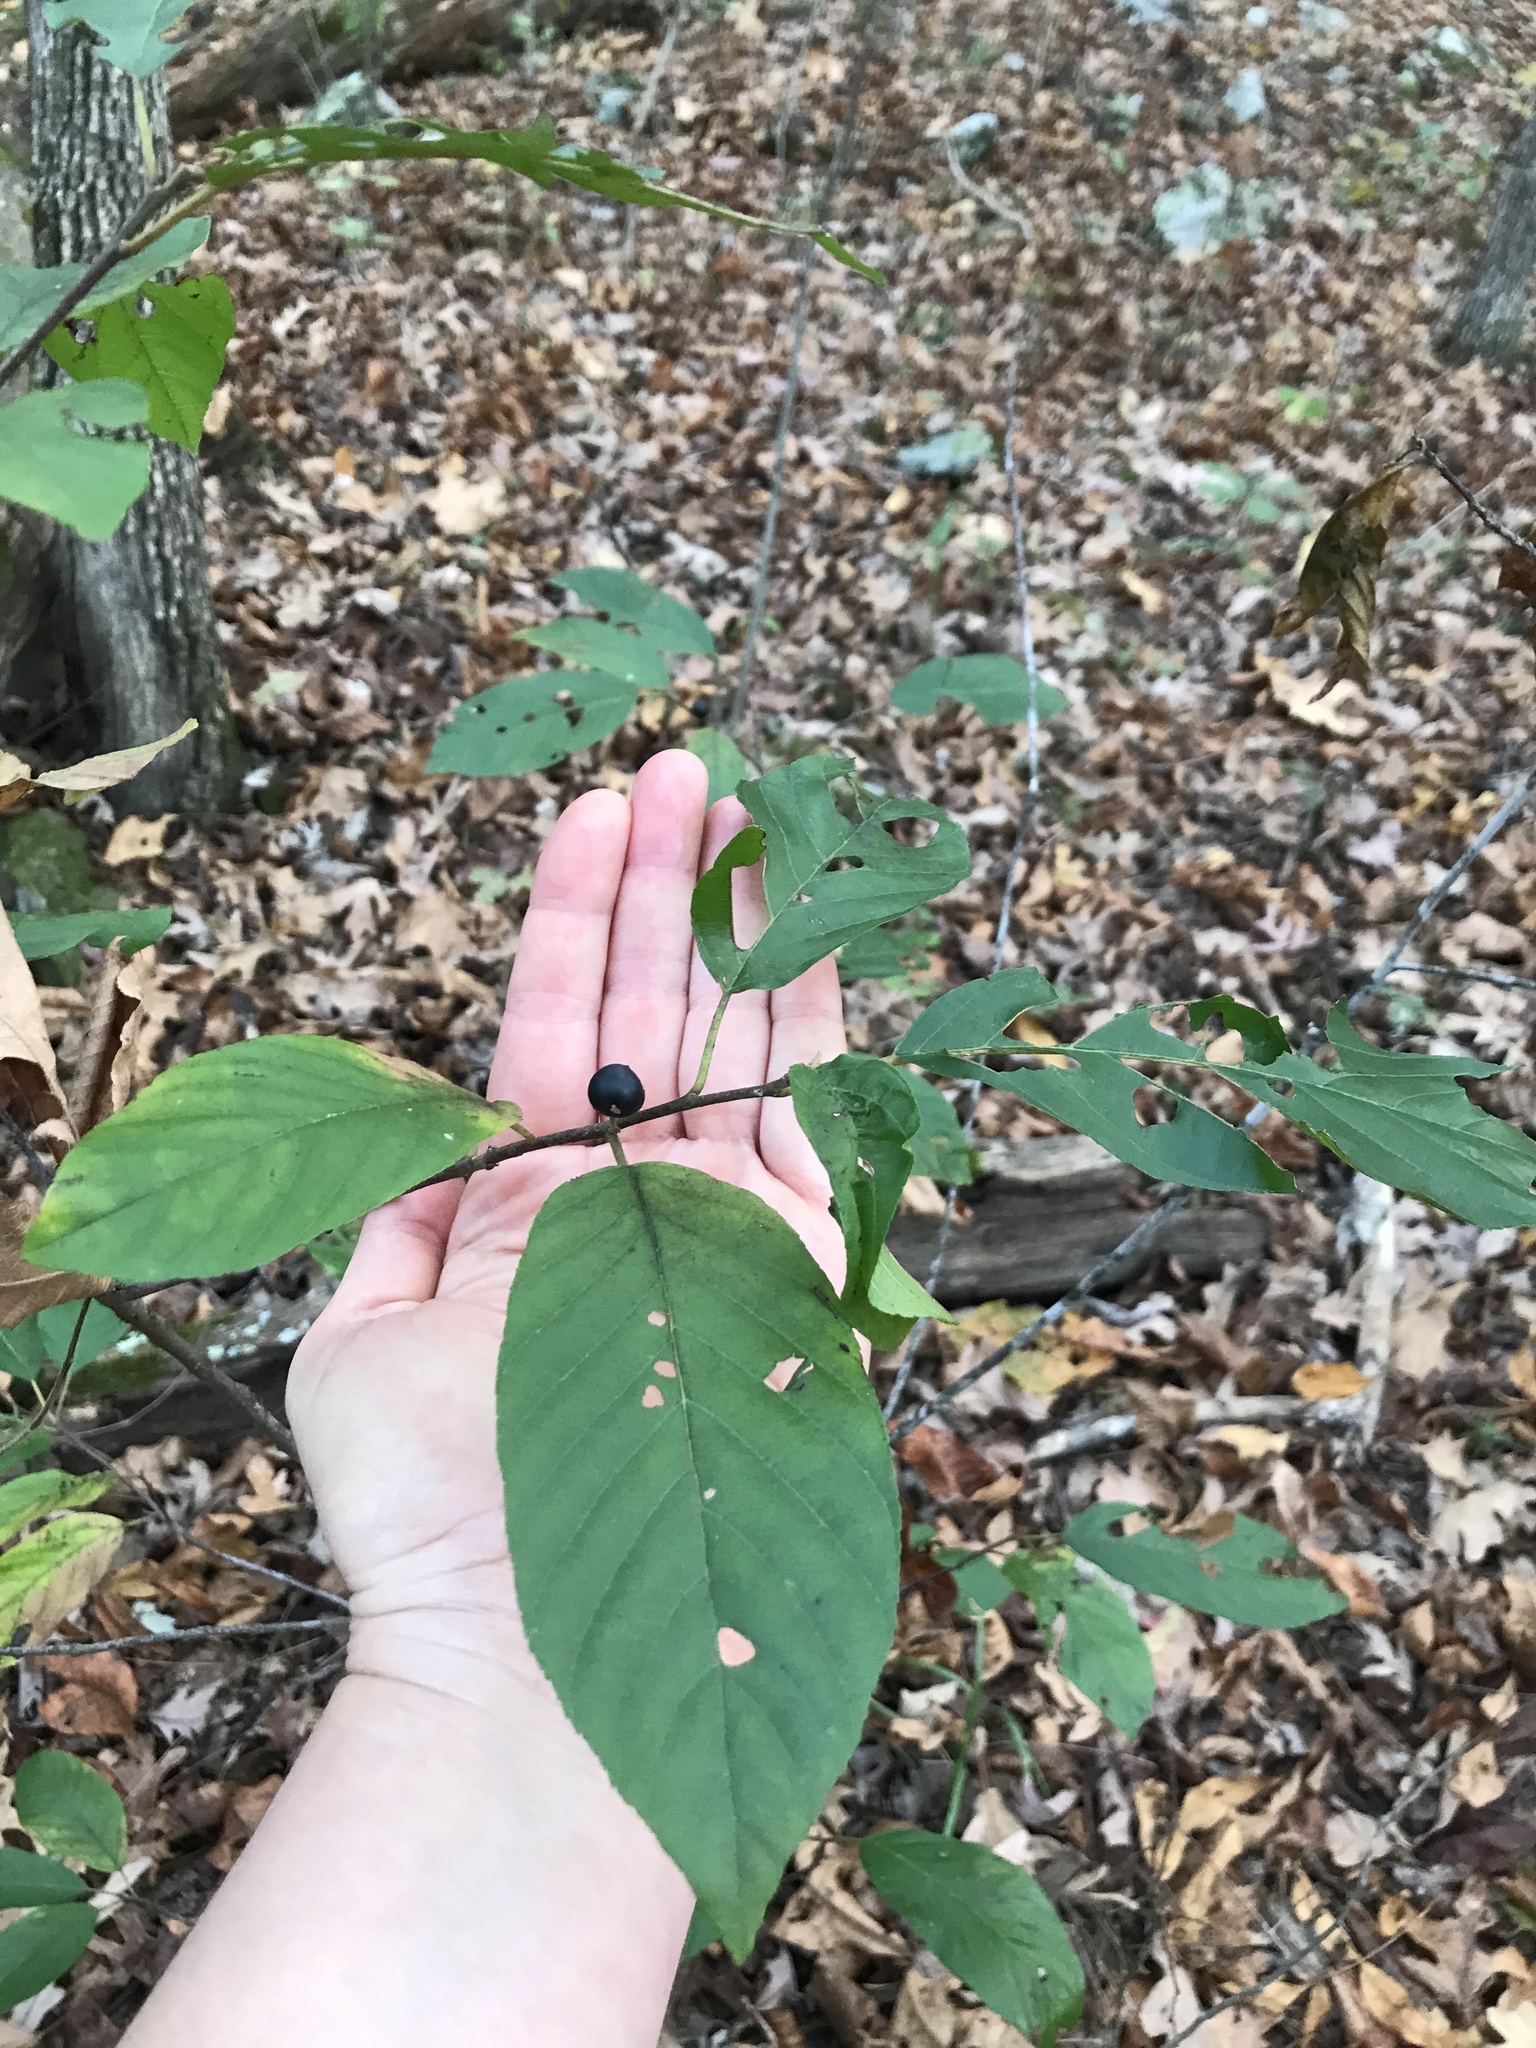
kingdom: Plantae
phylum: Tracheophyta
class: Magnoliopsida
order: Rosales
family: Rhamnaceae
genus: Frangula
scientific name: Frangula caroliniana
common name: Carolina buckthorn
